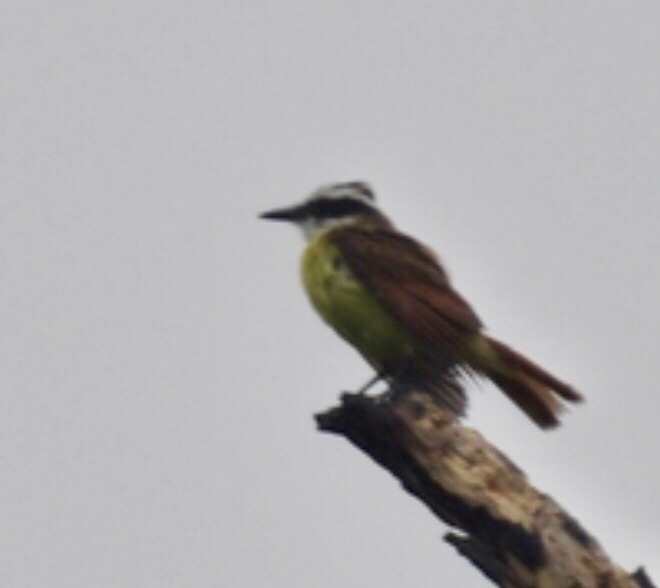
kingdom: Animalia
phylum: Chordata
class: Aves
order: Passeriformes
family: Tyrannidae
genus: Pitangus
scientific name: Pitangus sulphuratus
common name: Great kiskadee
